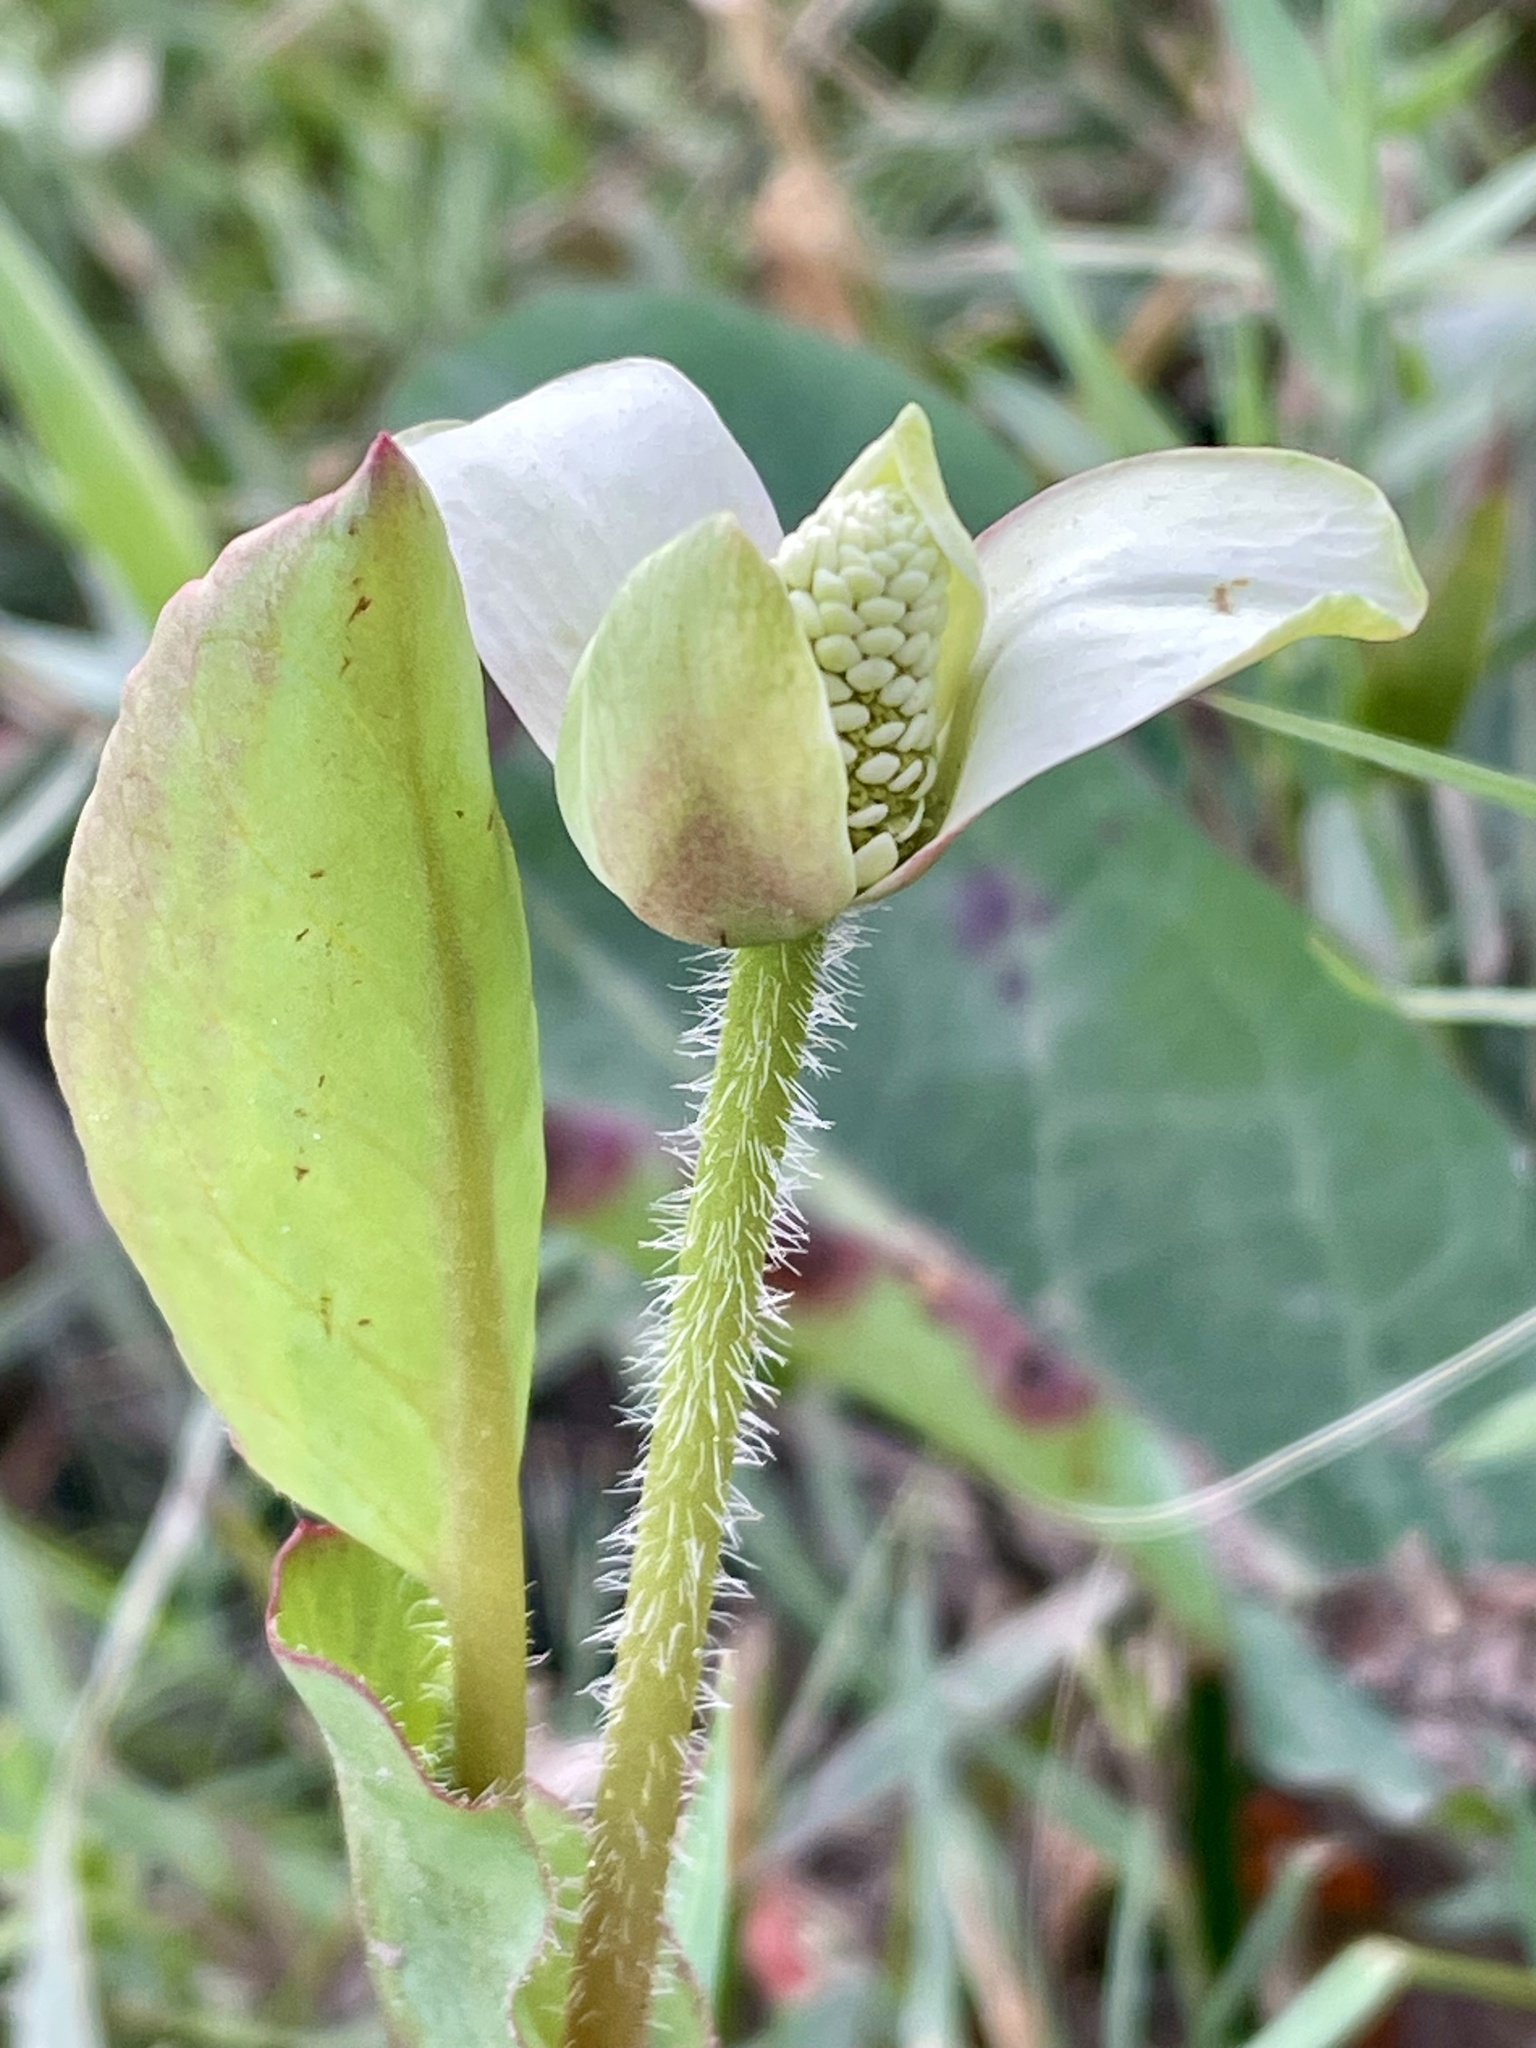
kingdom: Plantae
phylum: Tracheophyta
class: Magnoliopsida
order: Piperales
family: Saururaceae
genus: Anemopsis
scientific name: Anemopsis californica
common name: Apache-beads
